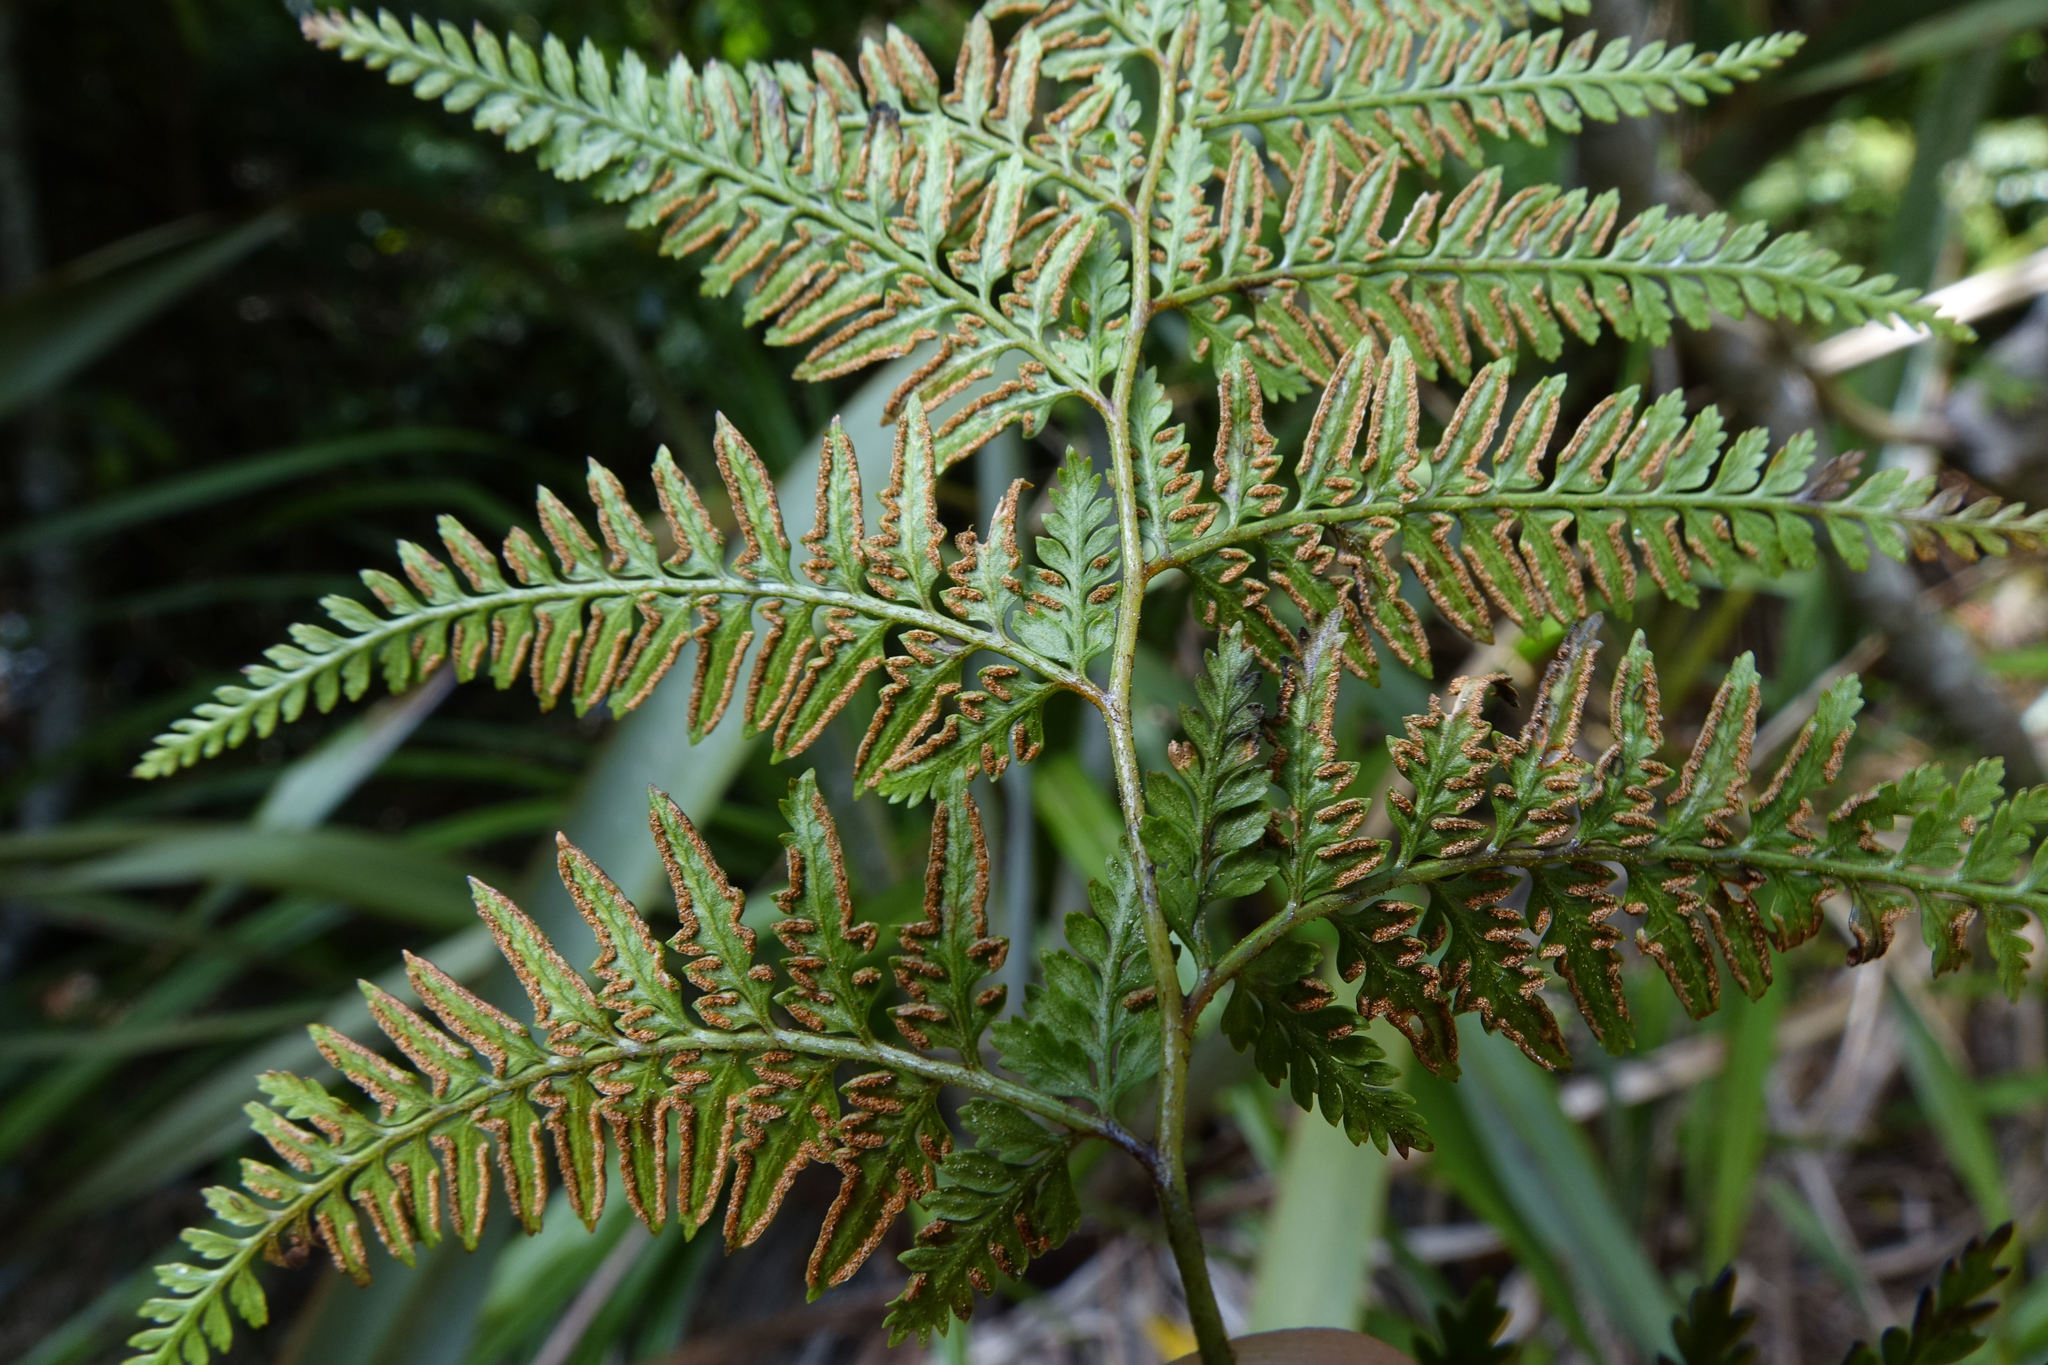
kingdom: Plantae
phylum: Tracheophyta
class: Polypodiopsida
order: Polypodiales
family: Dennstaedtiaceae
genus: Paesia
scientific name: Paesia scaberula
